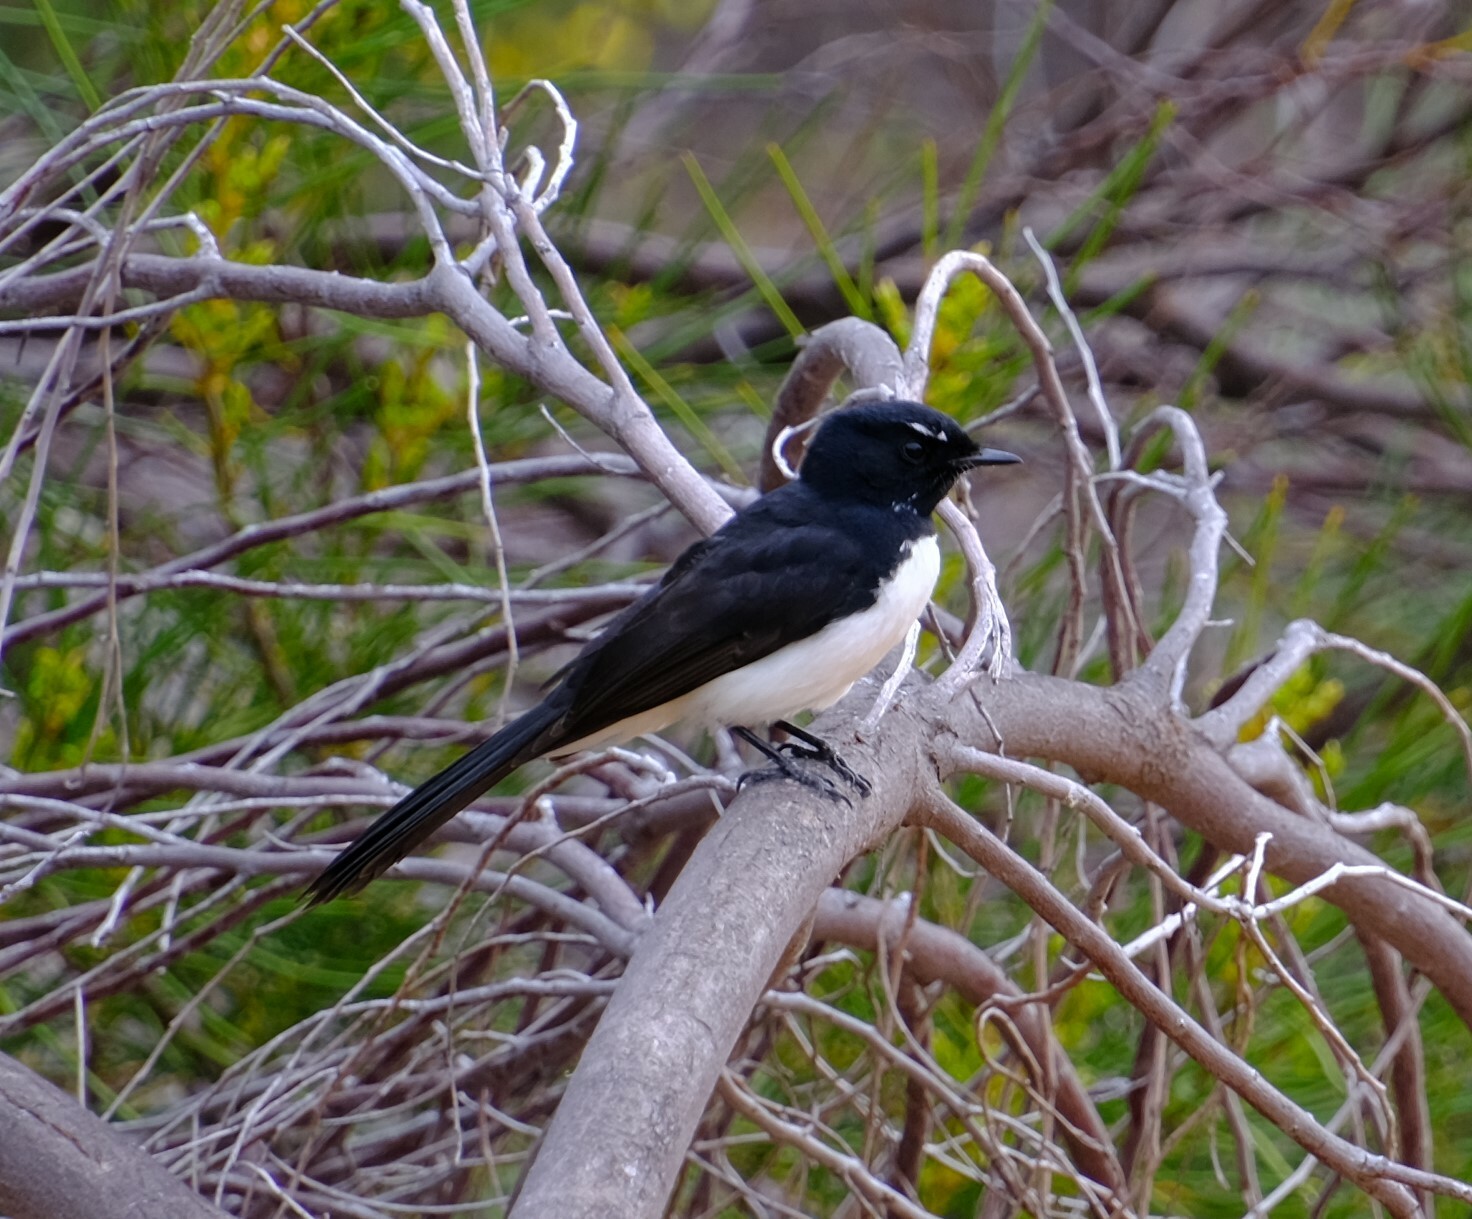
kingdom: Animalia
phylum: Chordata
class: Aves
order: Passeriformes
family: Rhipiduridae
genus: Rhipidura
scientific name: Rhipidura leucophrys
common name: Willie wagtail
